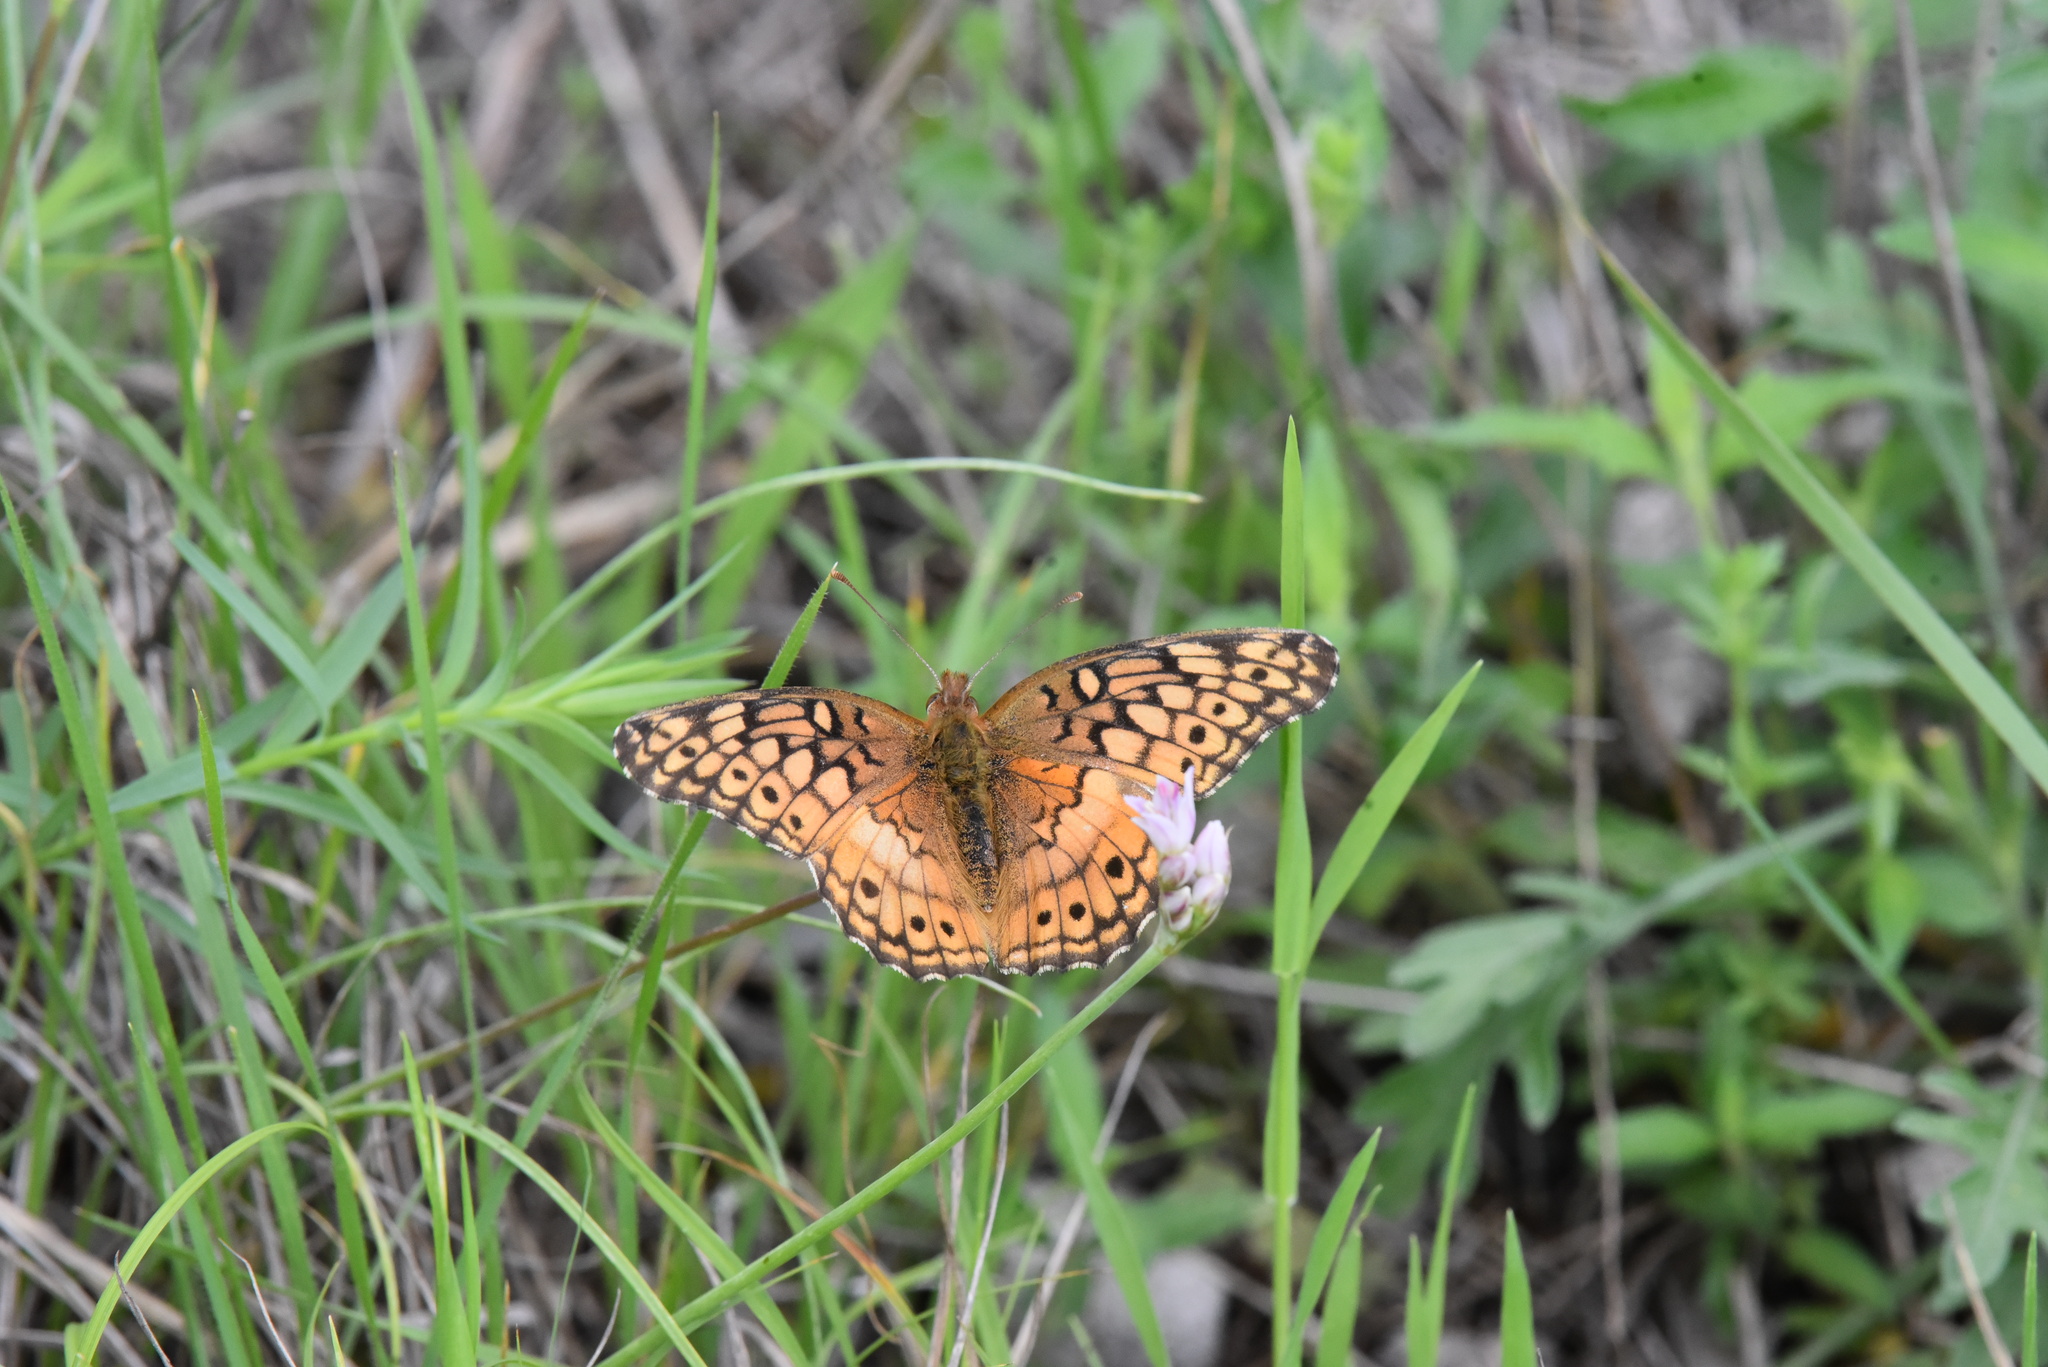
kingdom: Animalia
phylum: Arthropoda
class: Insecta
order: Lepidoptera
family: Nymphalidae
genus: Euptoieta
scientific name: Euptoieta claudia
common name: Variegated fritillary
